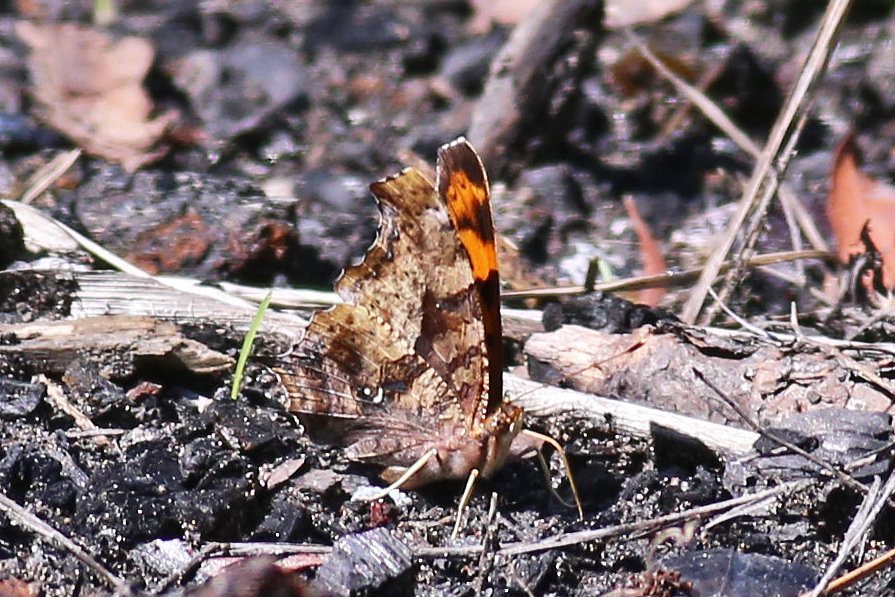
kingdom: Animalia
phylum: Arthropoda
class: Insecta
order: Lepidoptera
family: Nymphalidae
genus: Polygonia
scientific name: Polygonia interrogationis
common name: Question mark
